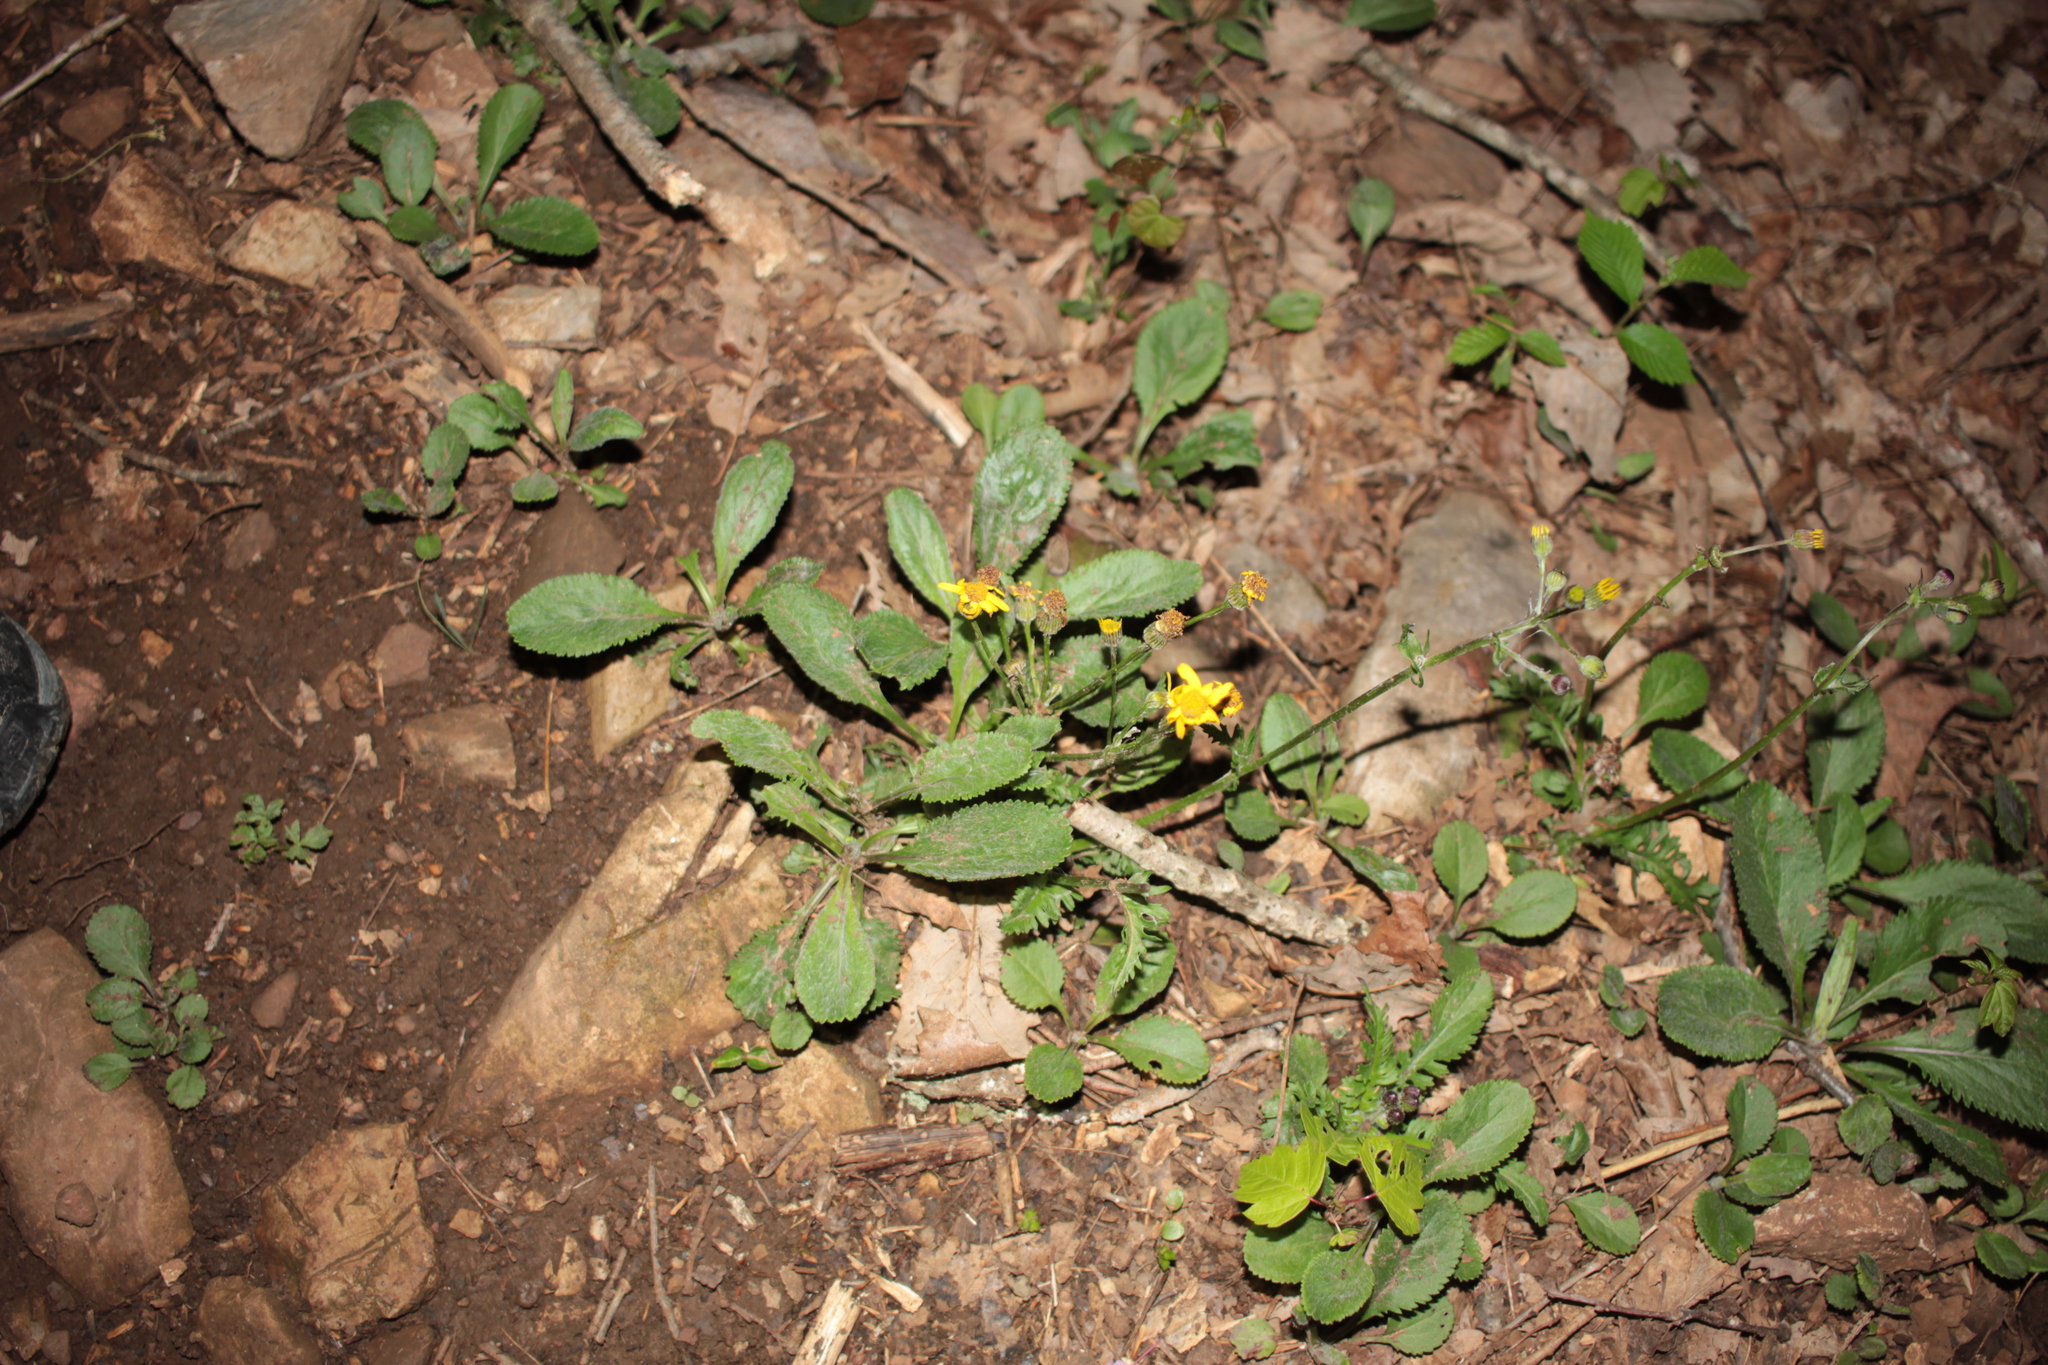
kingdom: Plantae
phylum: Tracheophyta
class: Magnoliopsida
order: Asterales
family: Asteraceae
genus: Packera
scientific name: Packera paupercula
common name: Balsam groundsel
